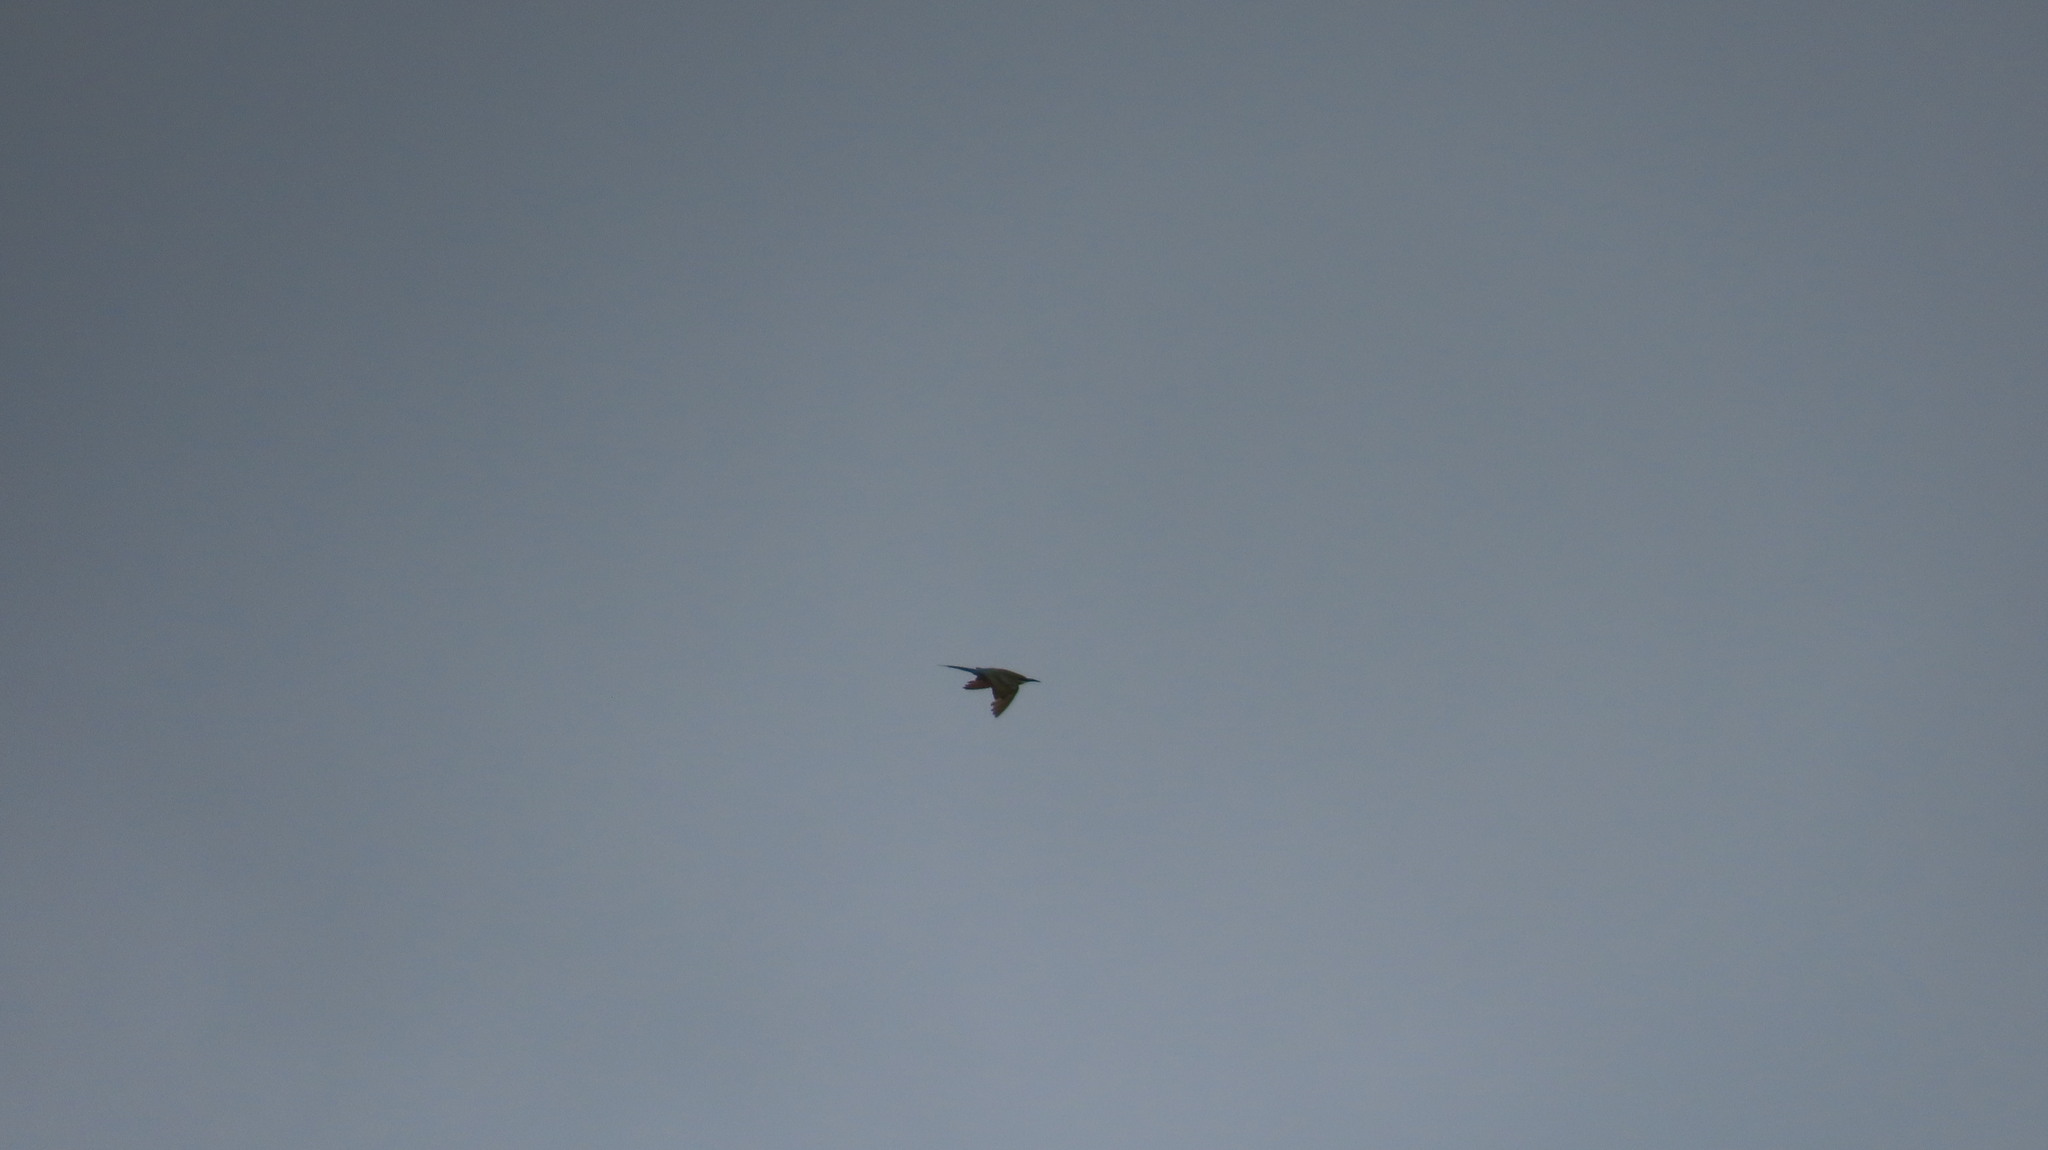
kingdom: Animalia
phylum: Chordata
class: Aves
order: Coraciiformes
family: Meropidae
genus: Merops
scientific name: Merops philippinus
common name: Blue-tailed bee-eater
